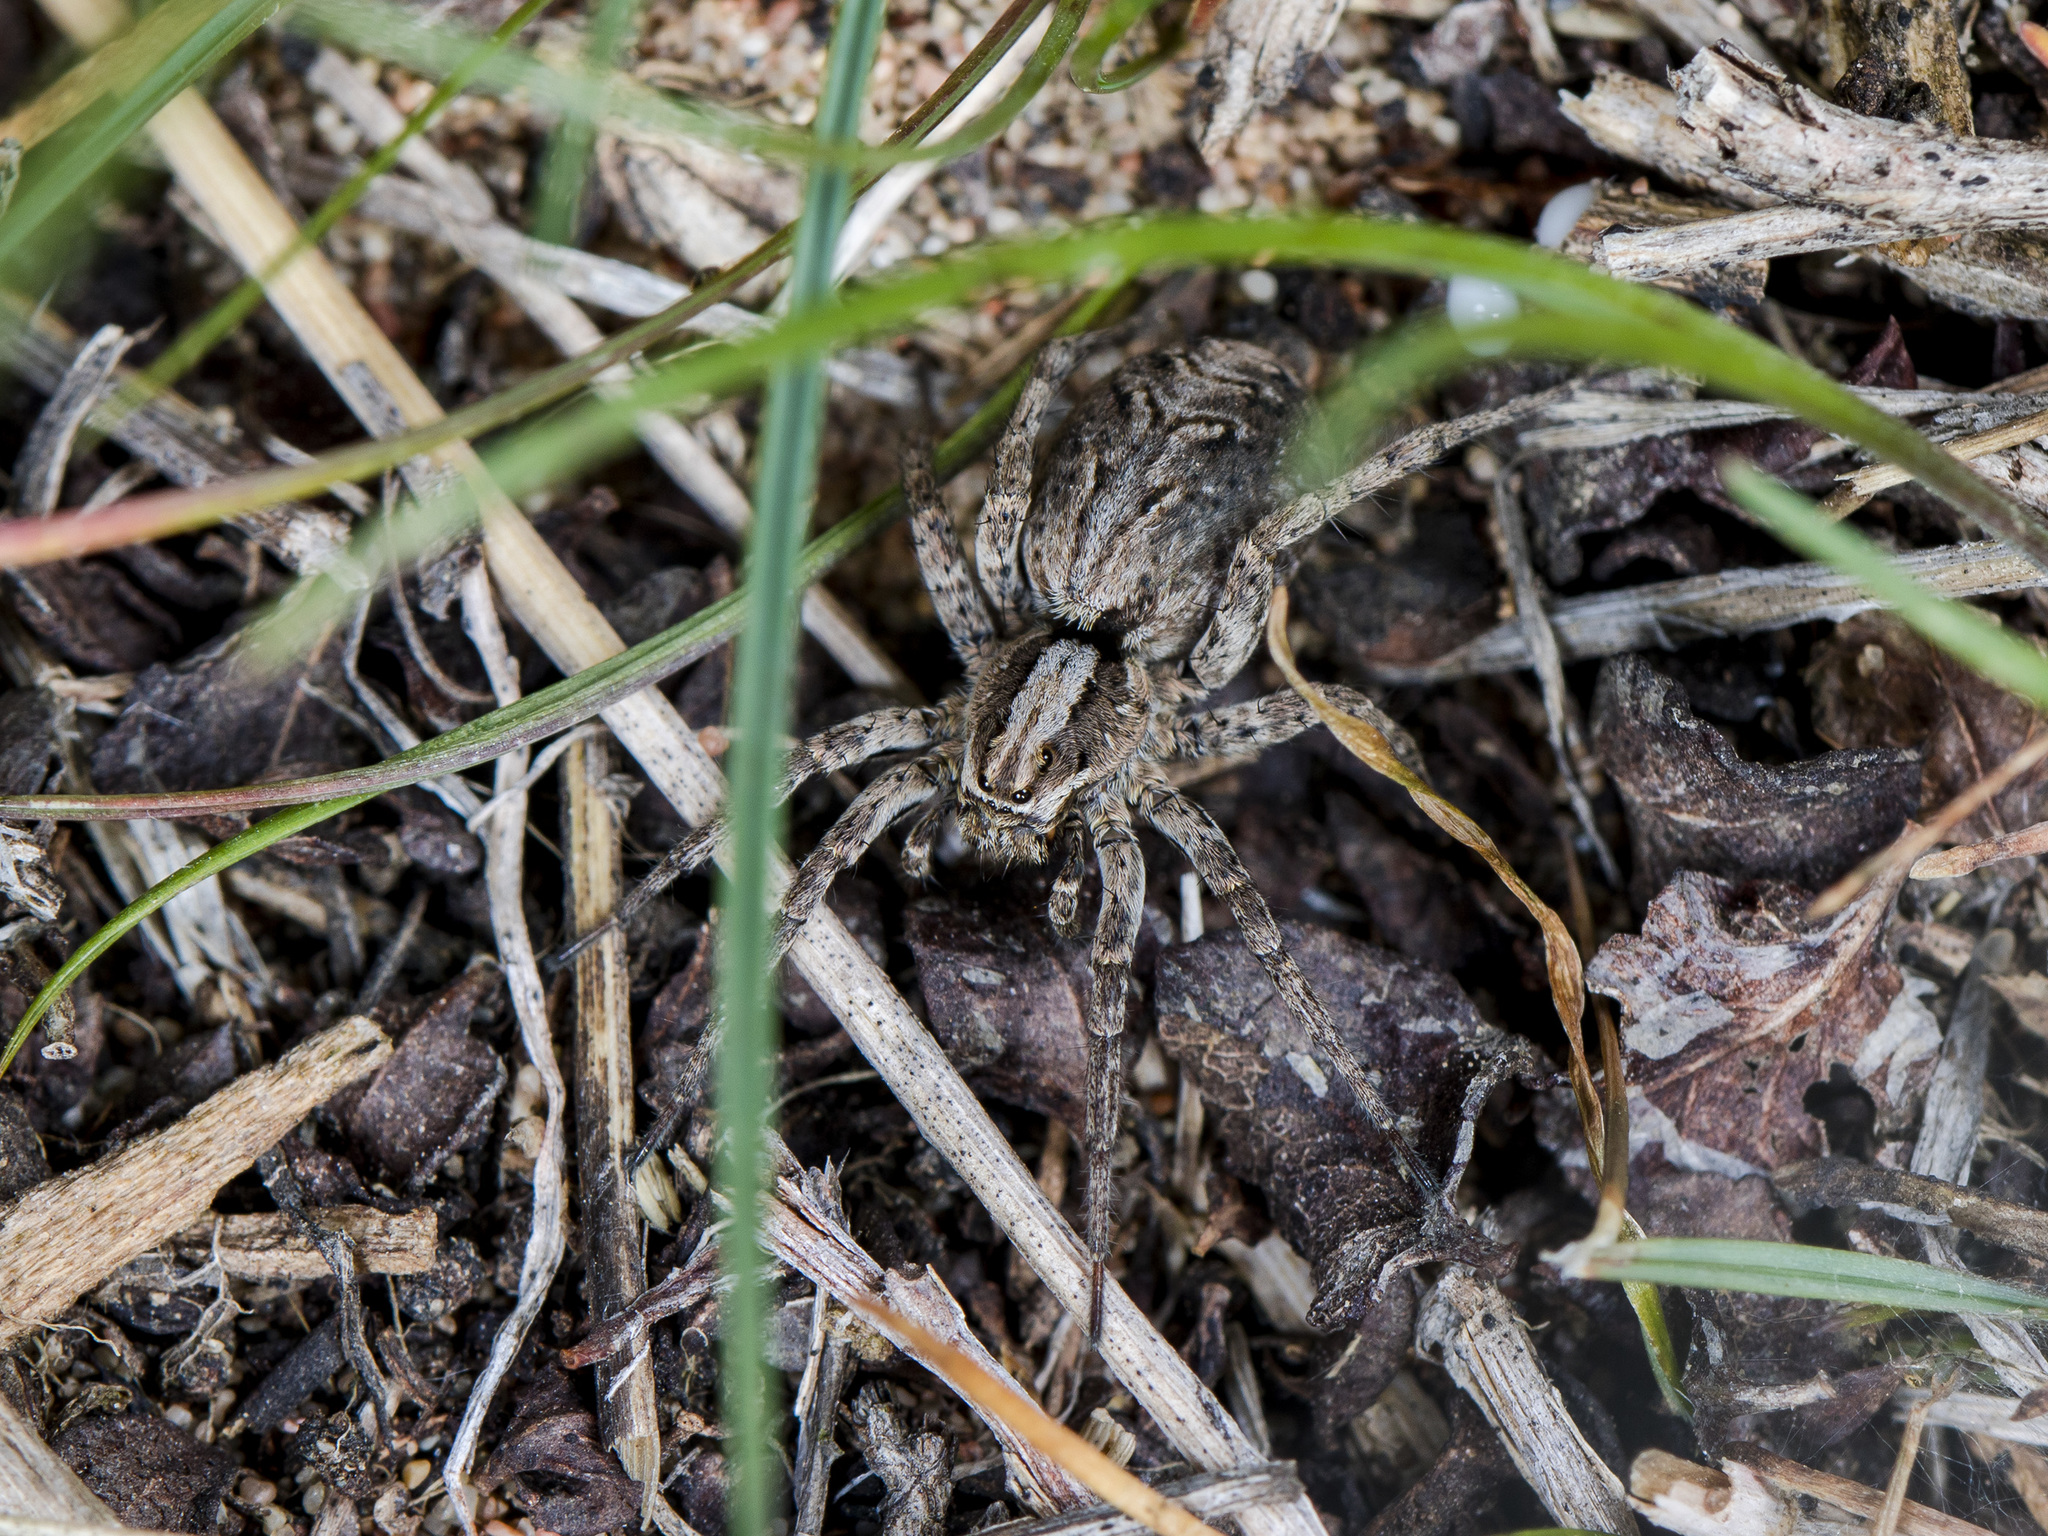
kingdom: Animalia
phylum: Arthropoda
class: Arachnida
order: Araneae
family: Lycosidae
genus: Alopecosa
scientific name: Alopecosa cursor
